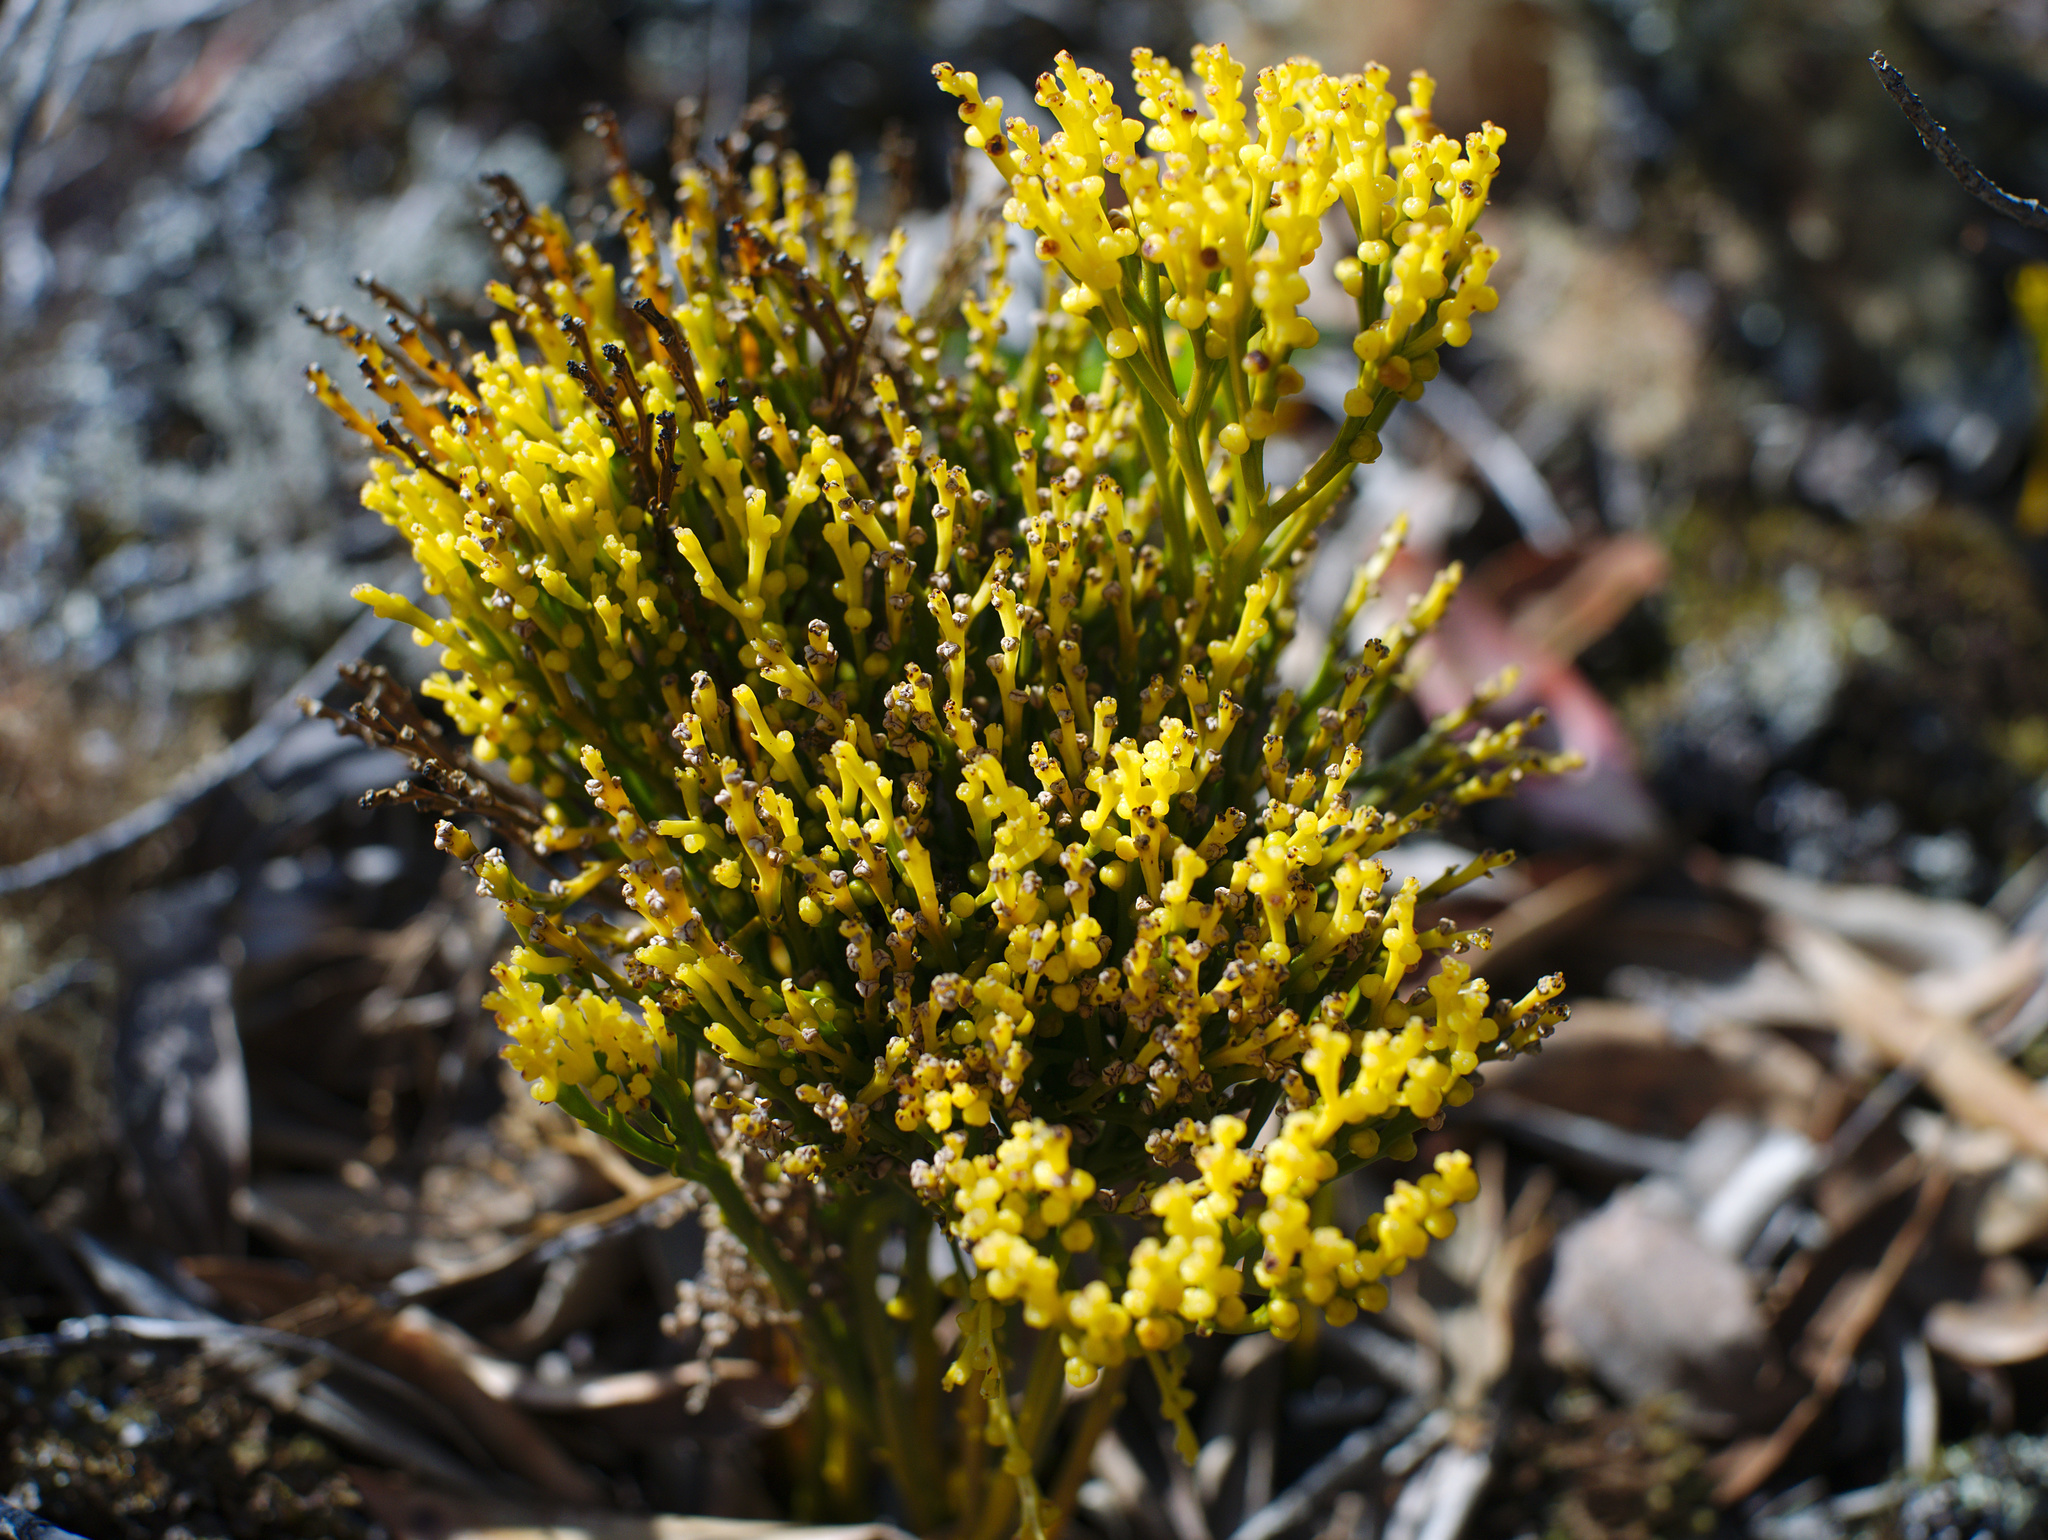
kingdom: Plantae
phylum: Tracheophyta
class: Polypodiopsida
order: Psilotales
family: Psilotaceae
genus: Psilotum
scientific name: Psilotum nudum
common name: Skeleton fork fern
